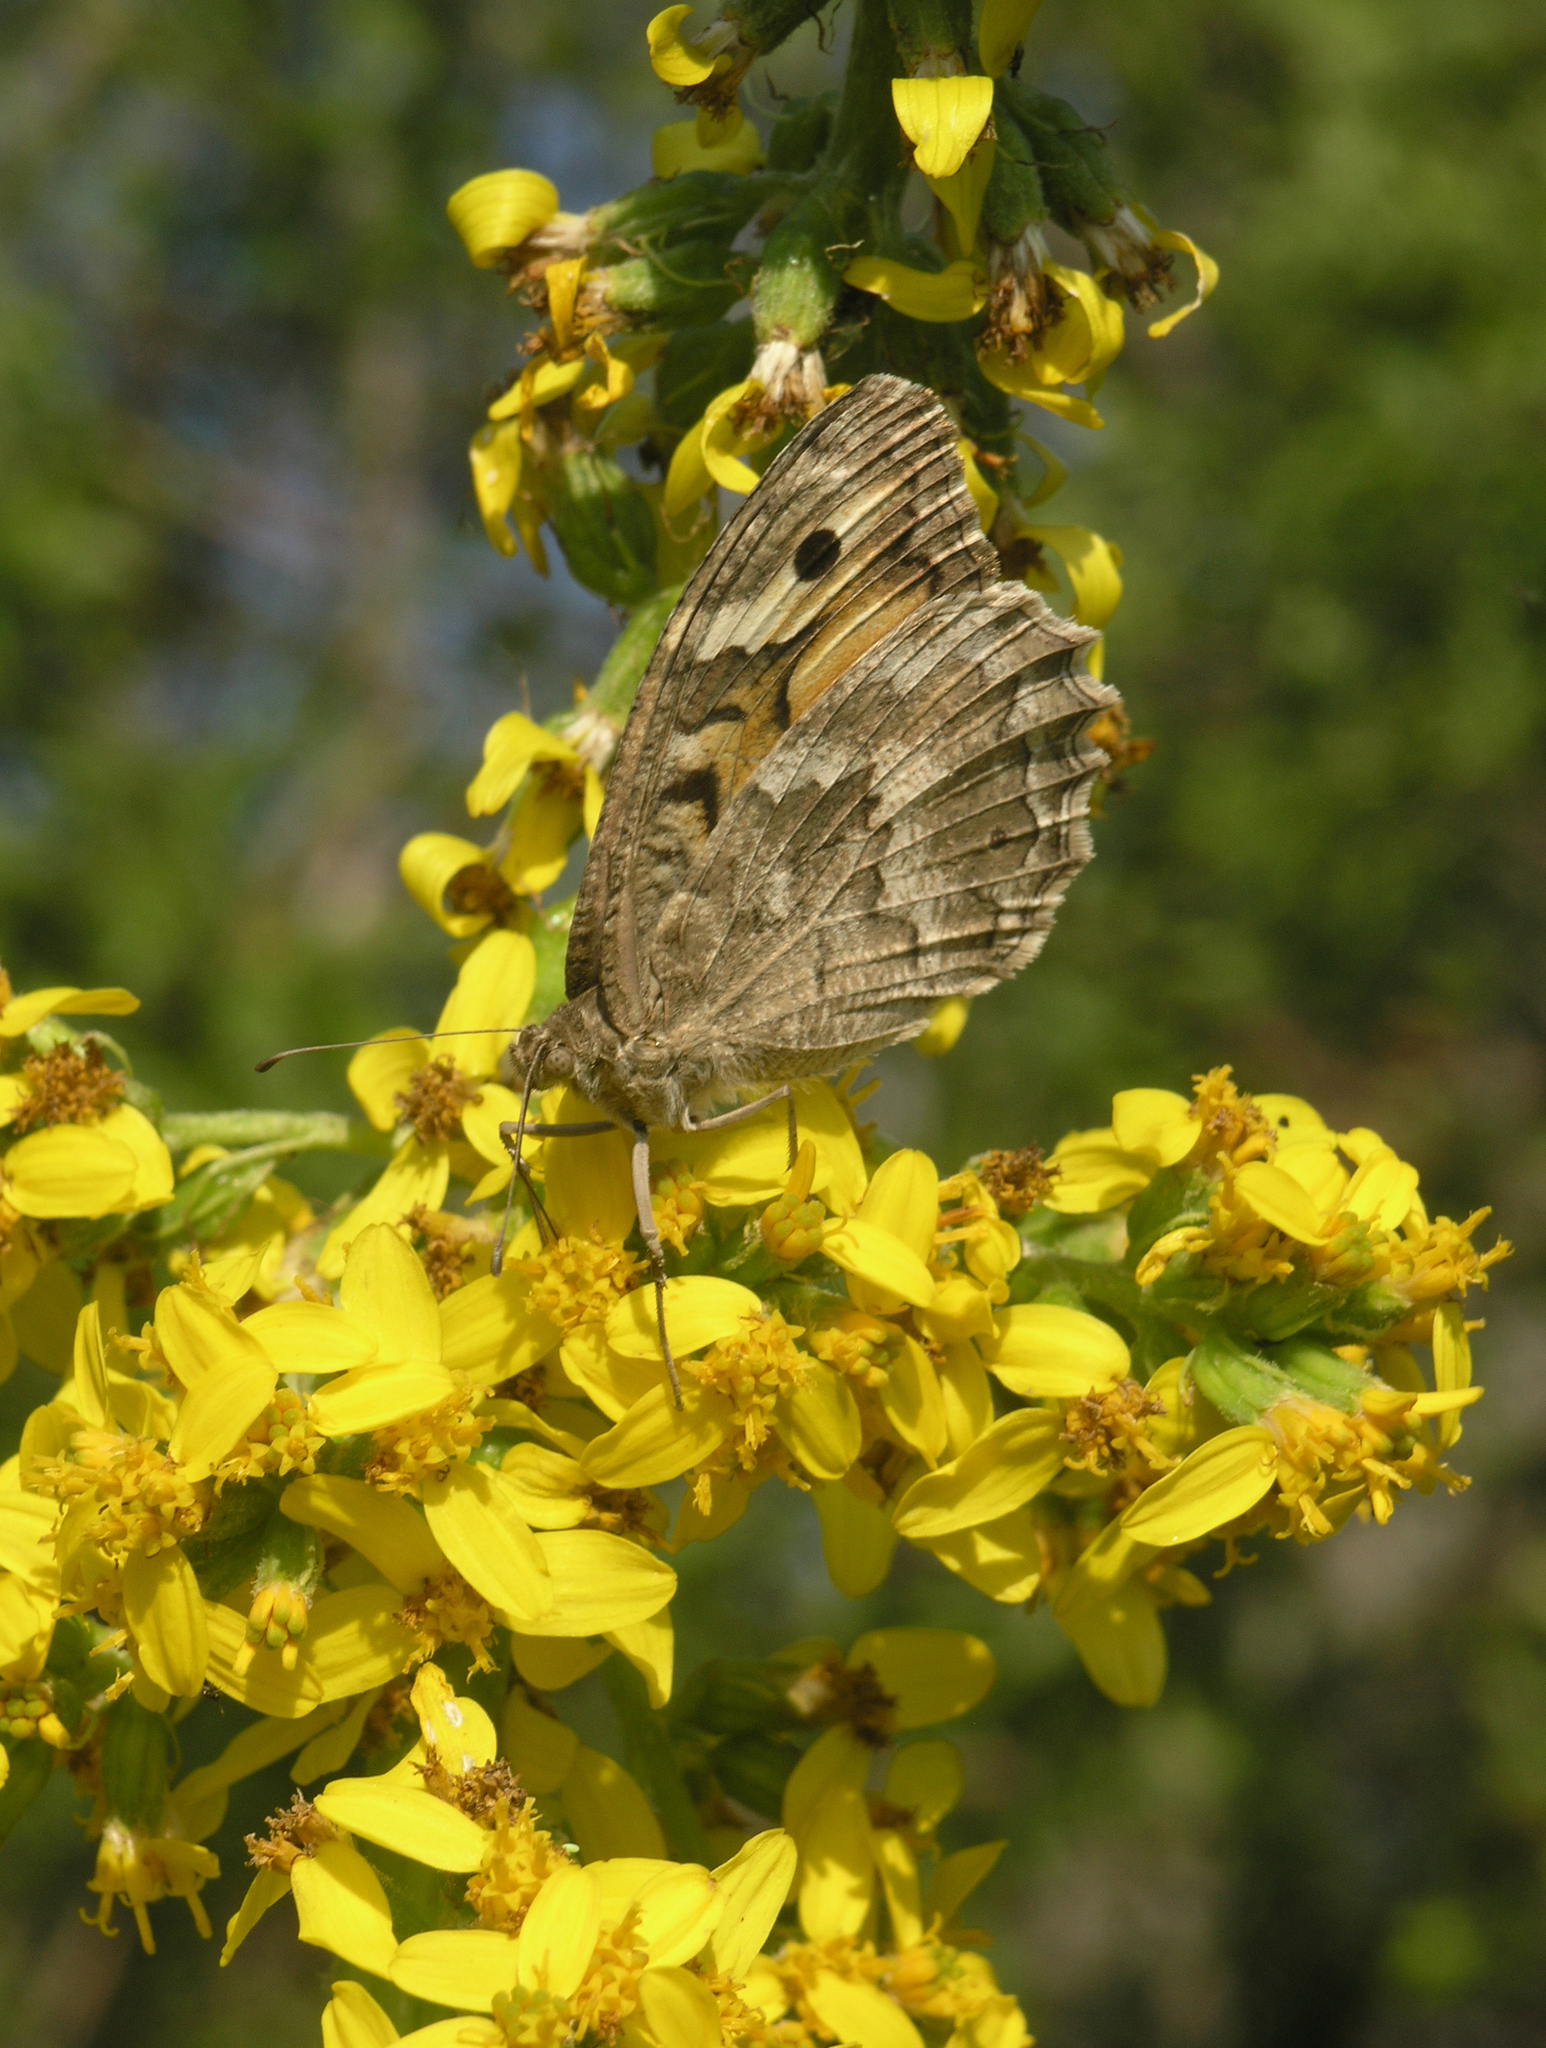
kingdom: Plantae
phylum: Tracheophyta
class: Magnoliopsida
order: Asterales
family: Asteraceae
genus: Ligularia
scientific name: Ligularia heterophylla
